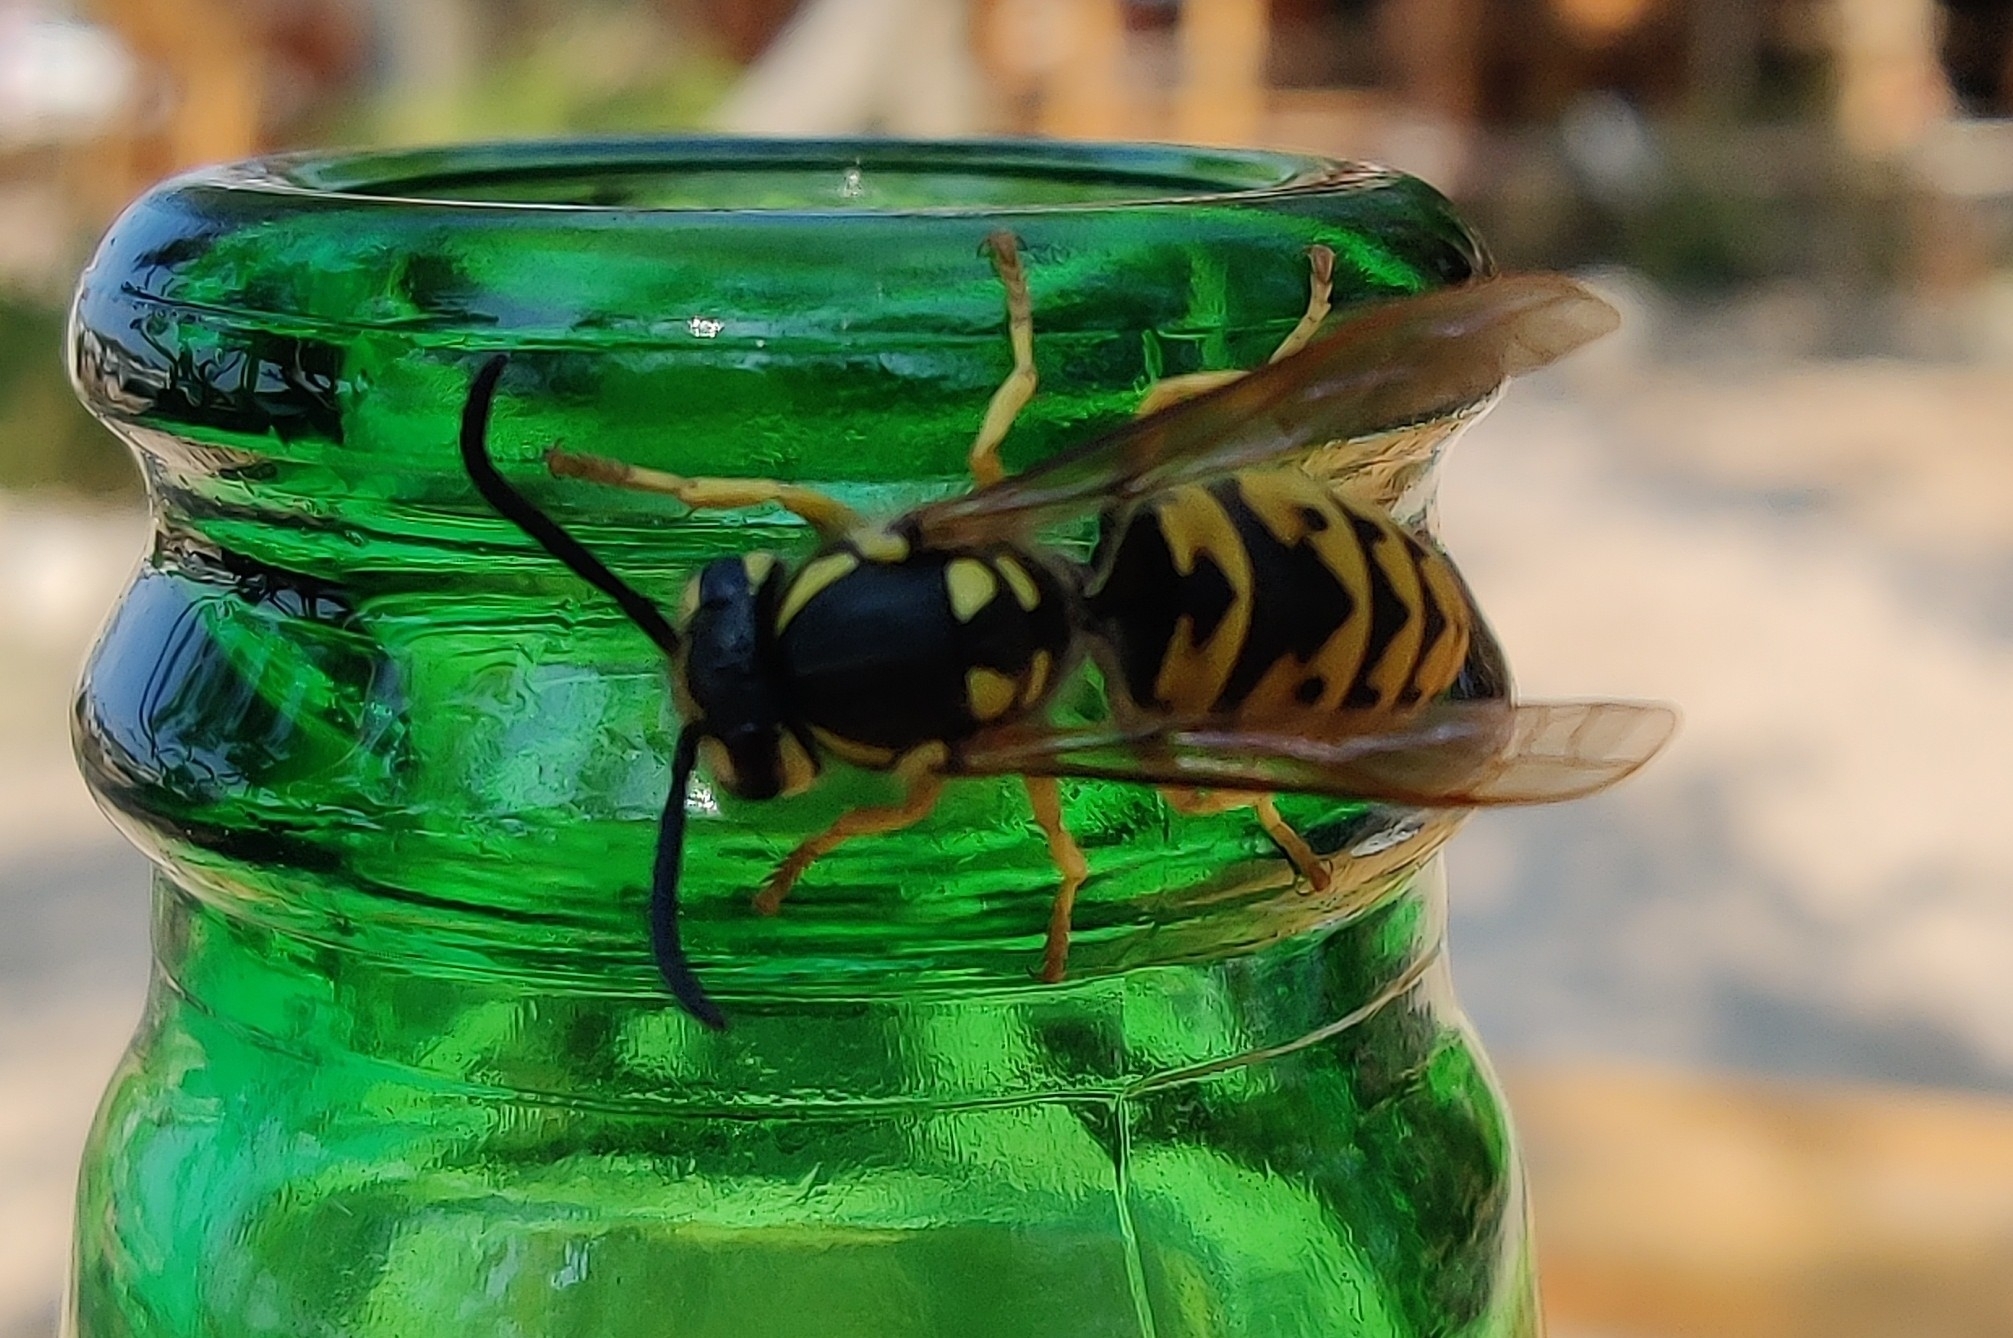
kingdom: Animalia
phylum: Arthropoda
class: Insecta
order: Hymenoptera
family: Vespidae
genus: Vespula
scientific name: Vespula germanica
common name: German wasp
